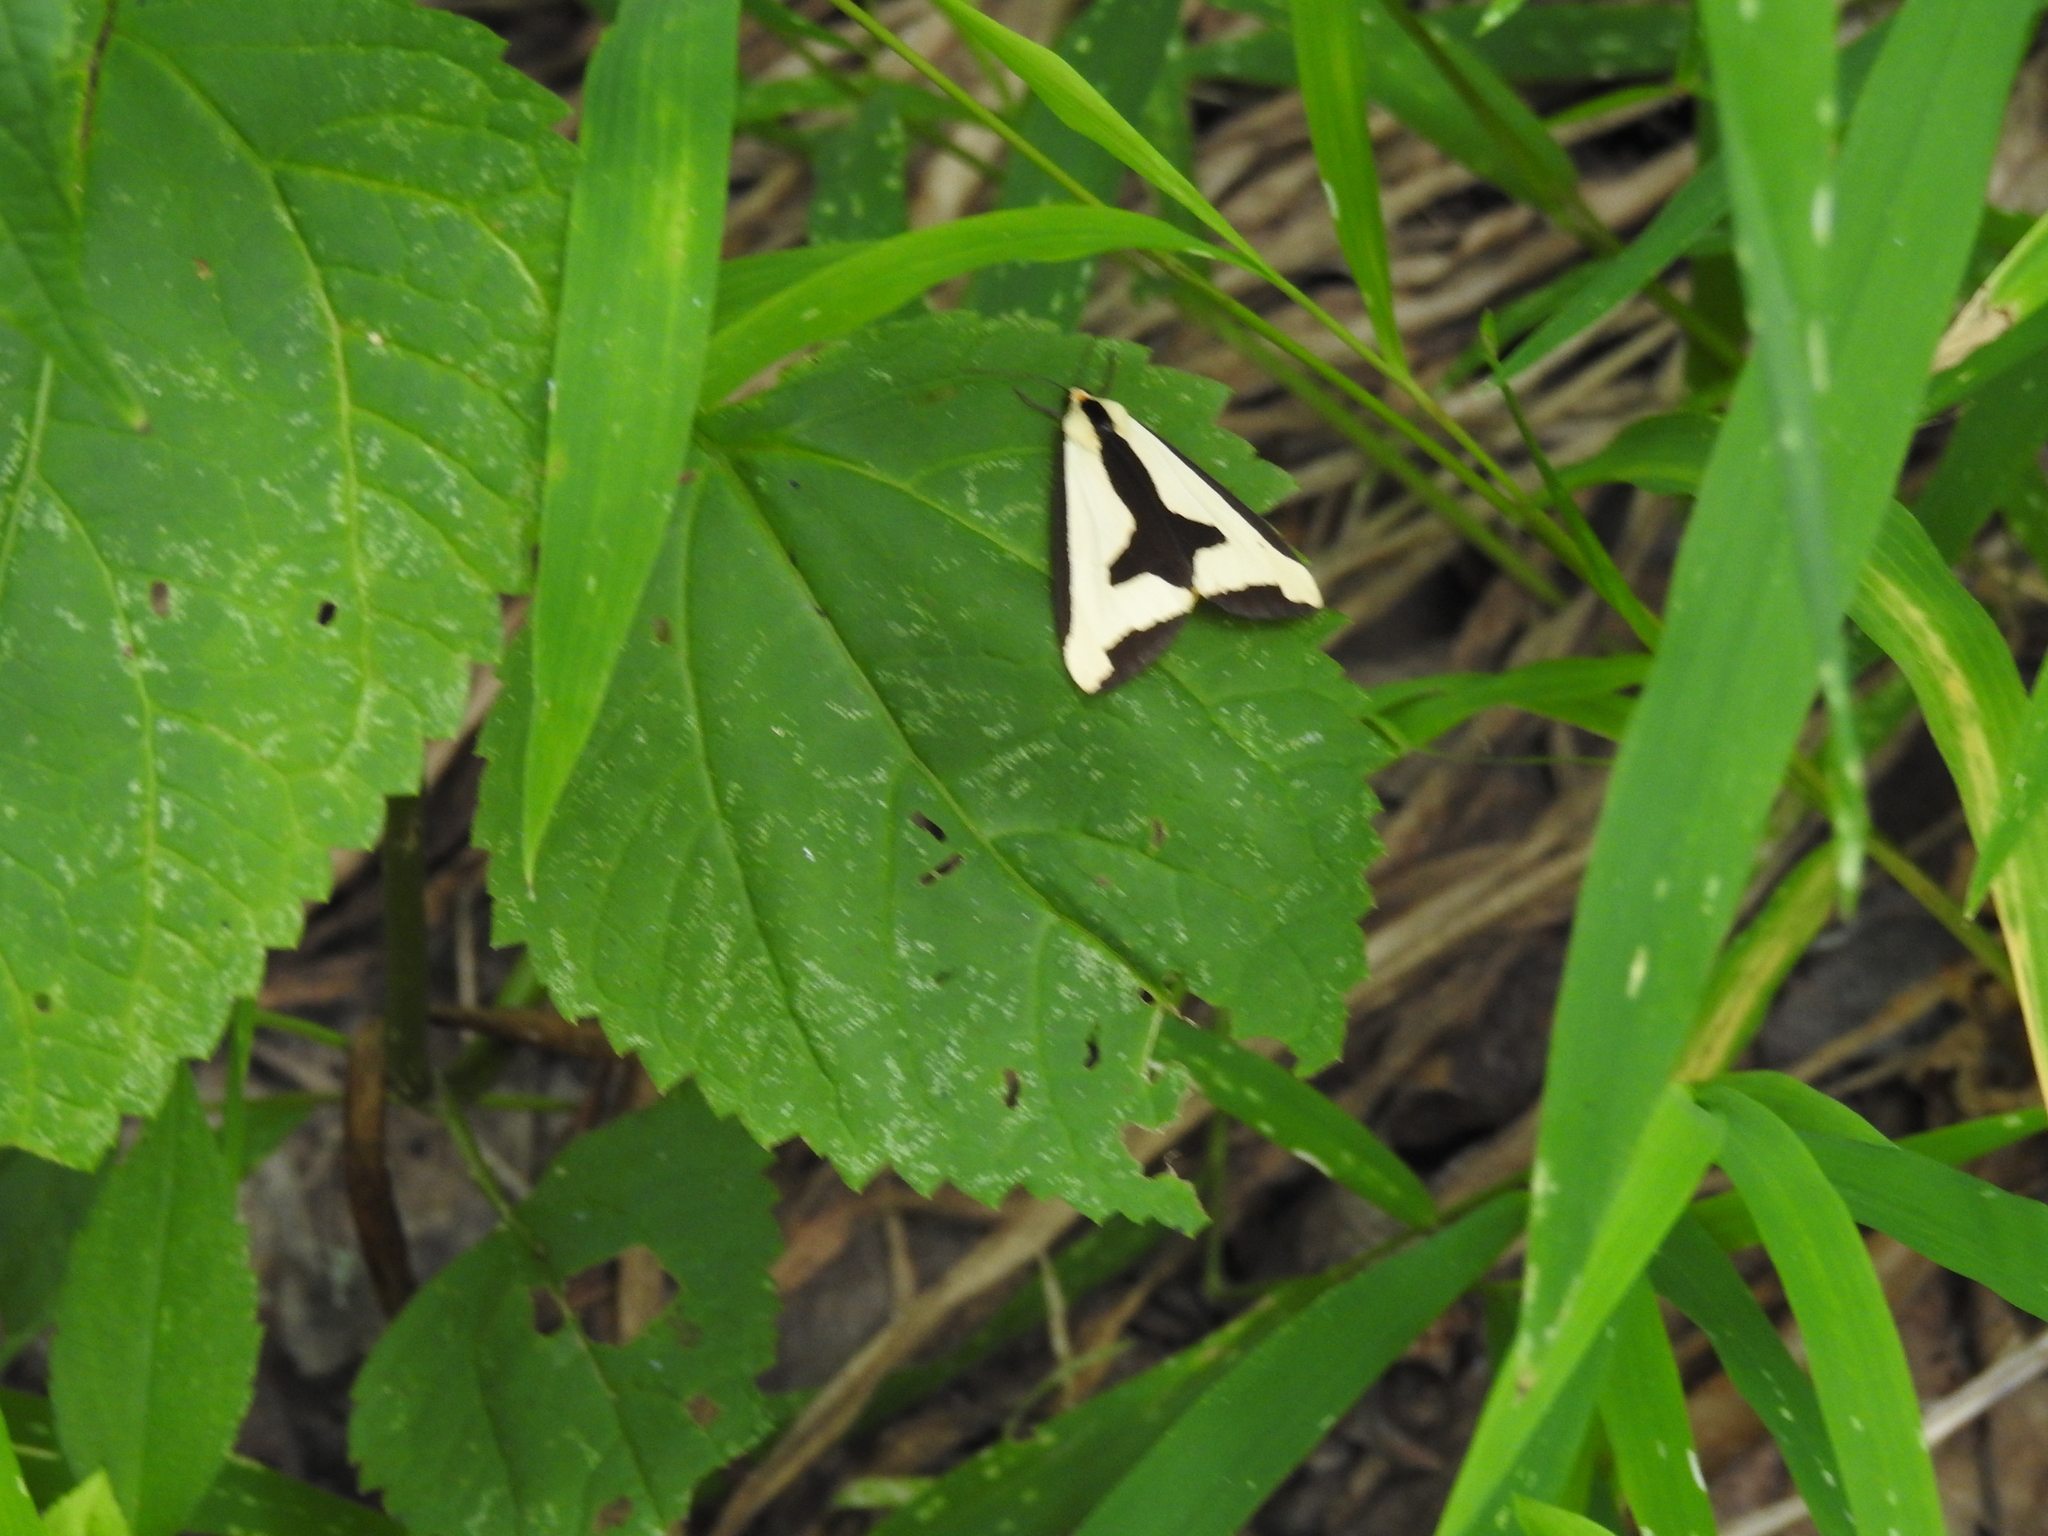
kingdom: Animalia
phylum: Arthropoda
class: Insecta
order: Lepidoptera
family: Erebidae
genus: Haploa
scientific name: Haploa clymene
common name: Clymene moth
